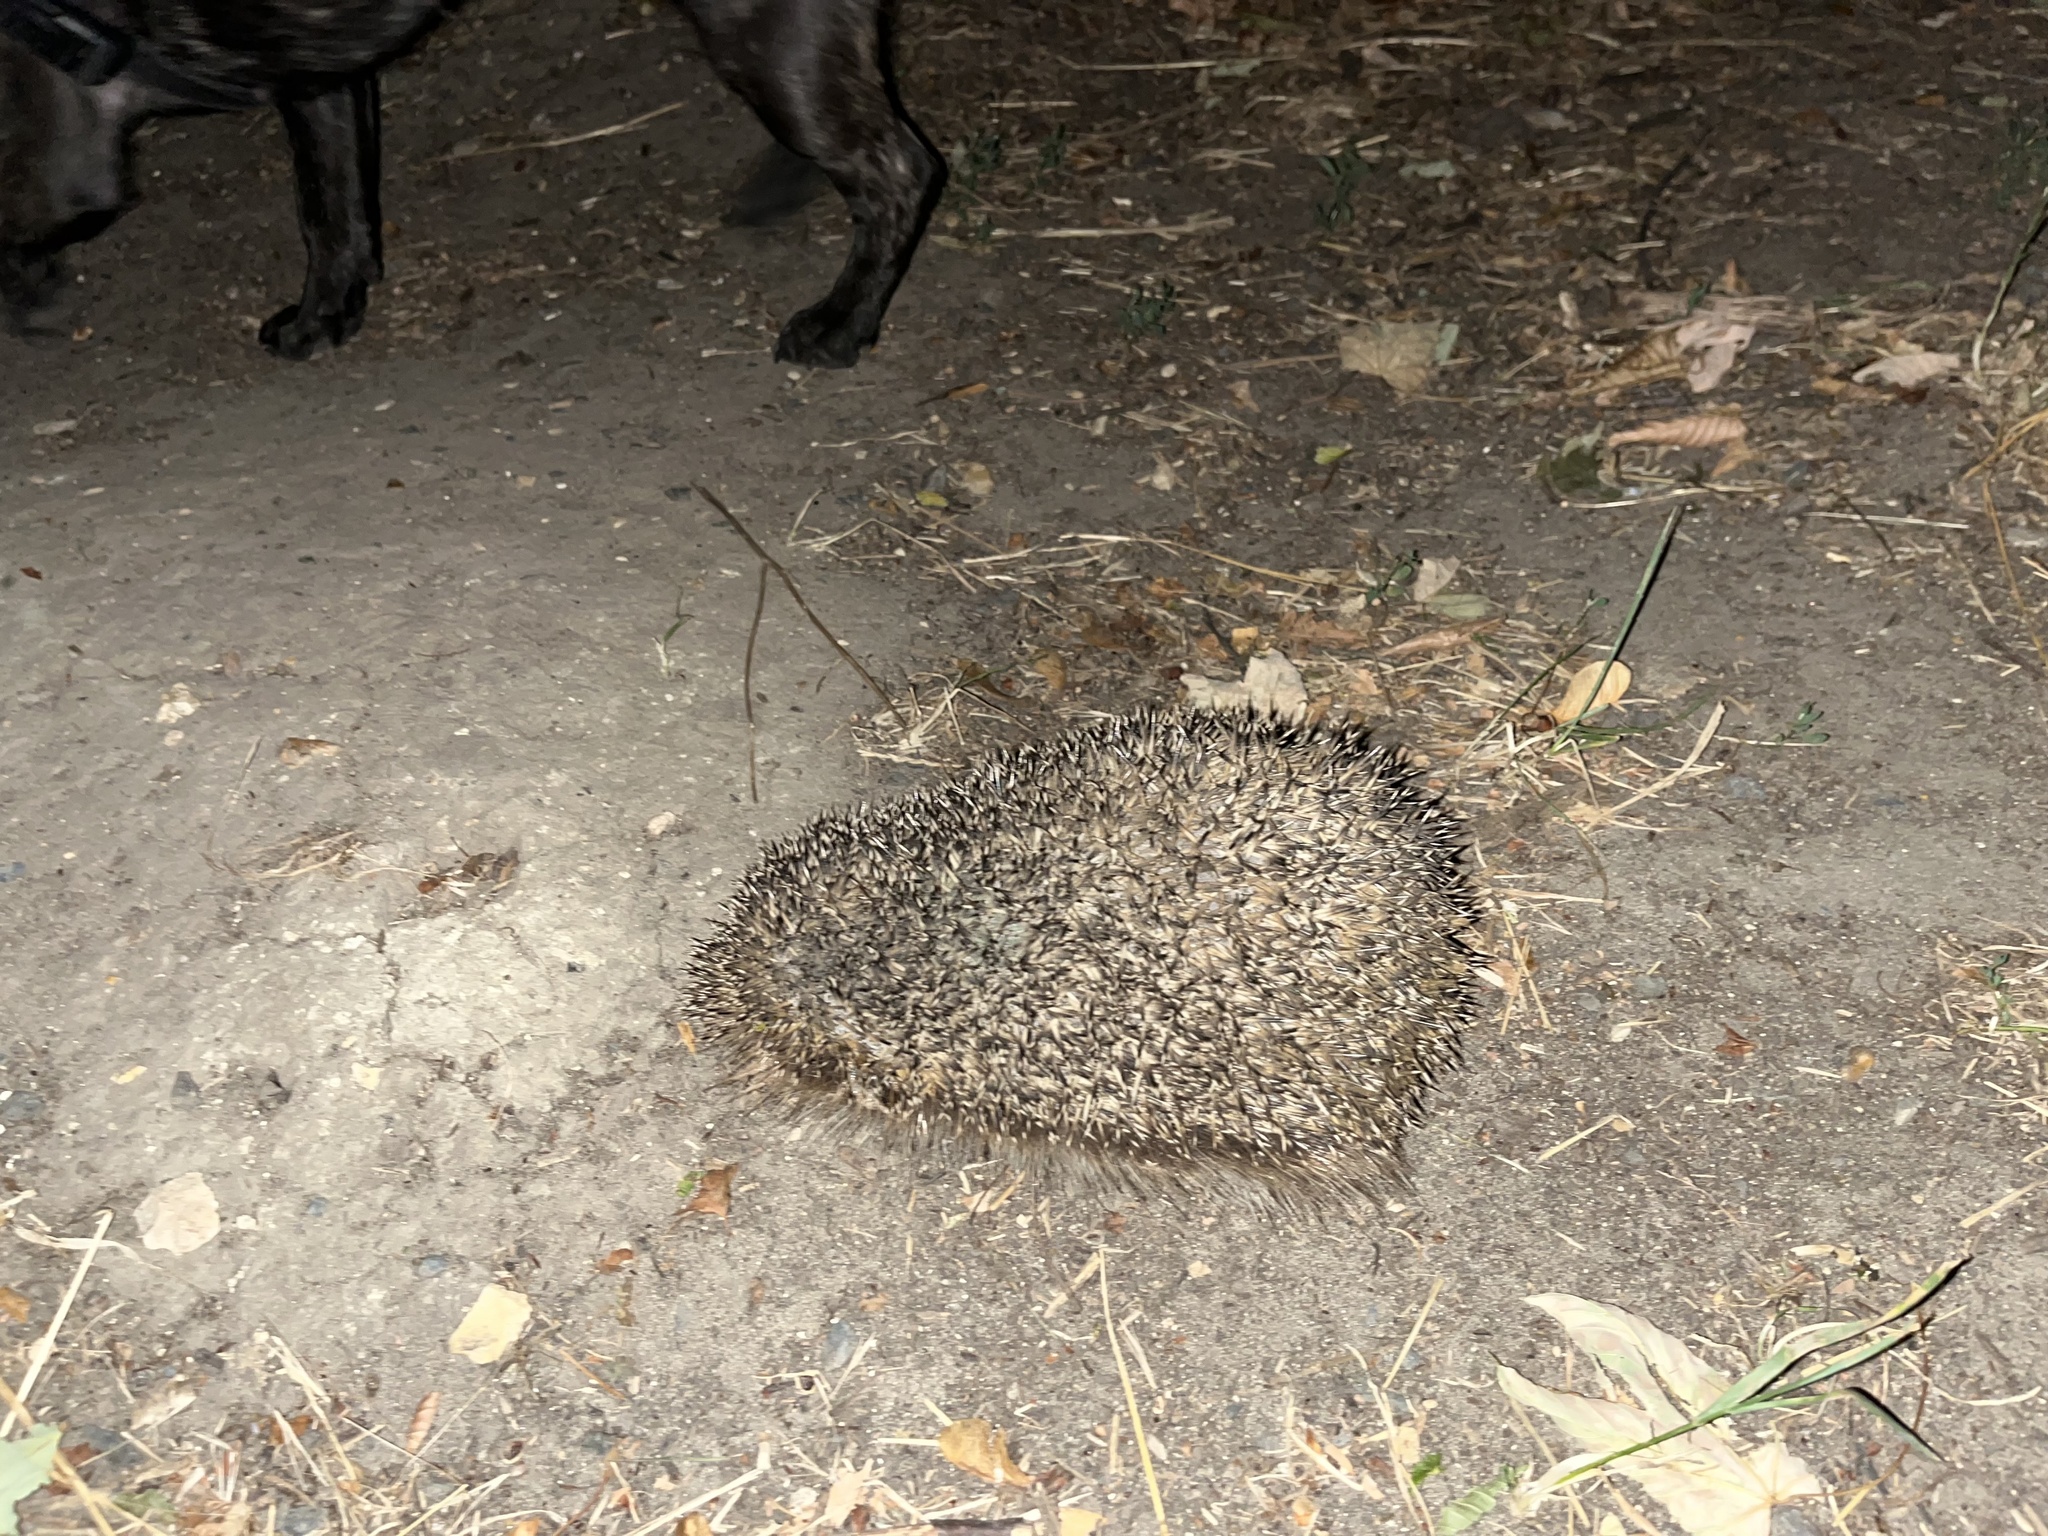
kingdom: Animalia
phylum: Chordata
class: Mammalia
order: Erinaceomorpha
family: Erinaceidae
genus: Erinaceus
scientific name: Erinaceus europaeus
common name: West european hedgehog
